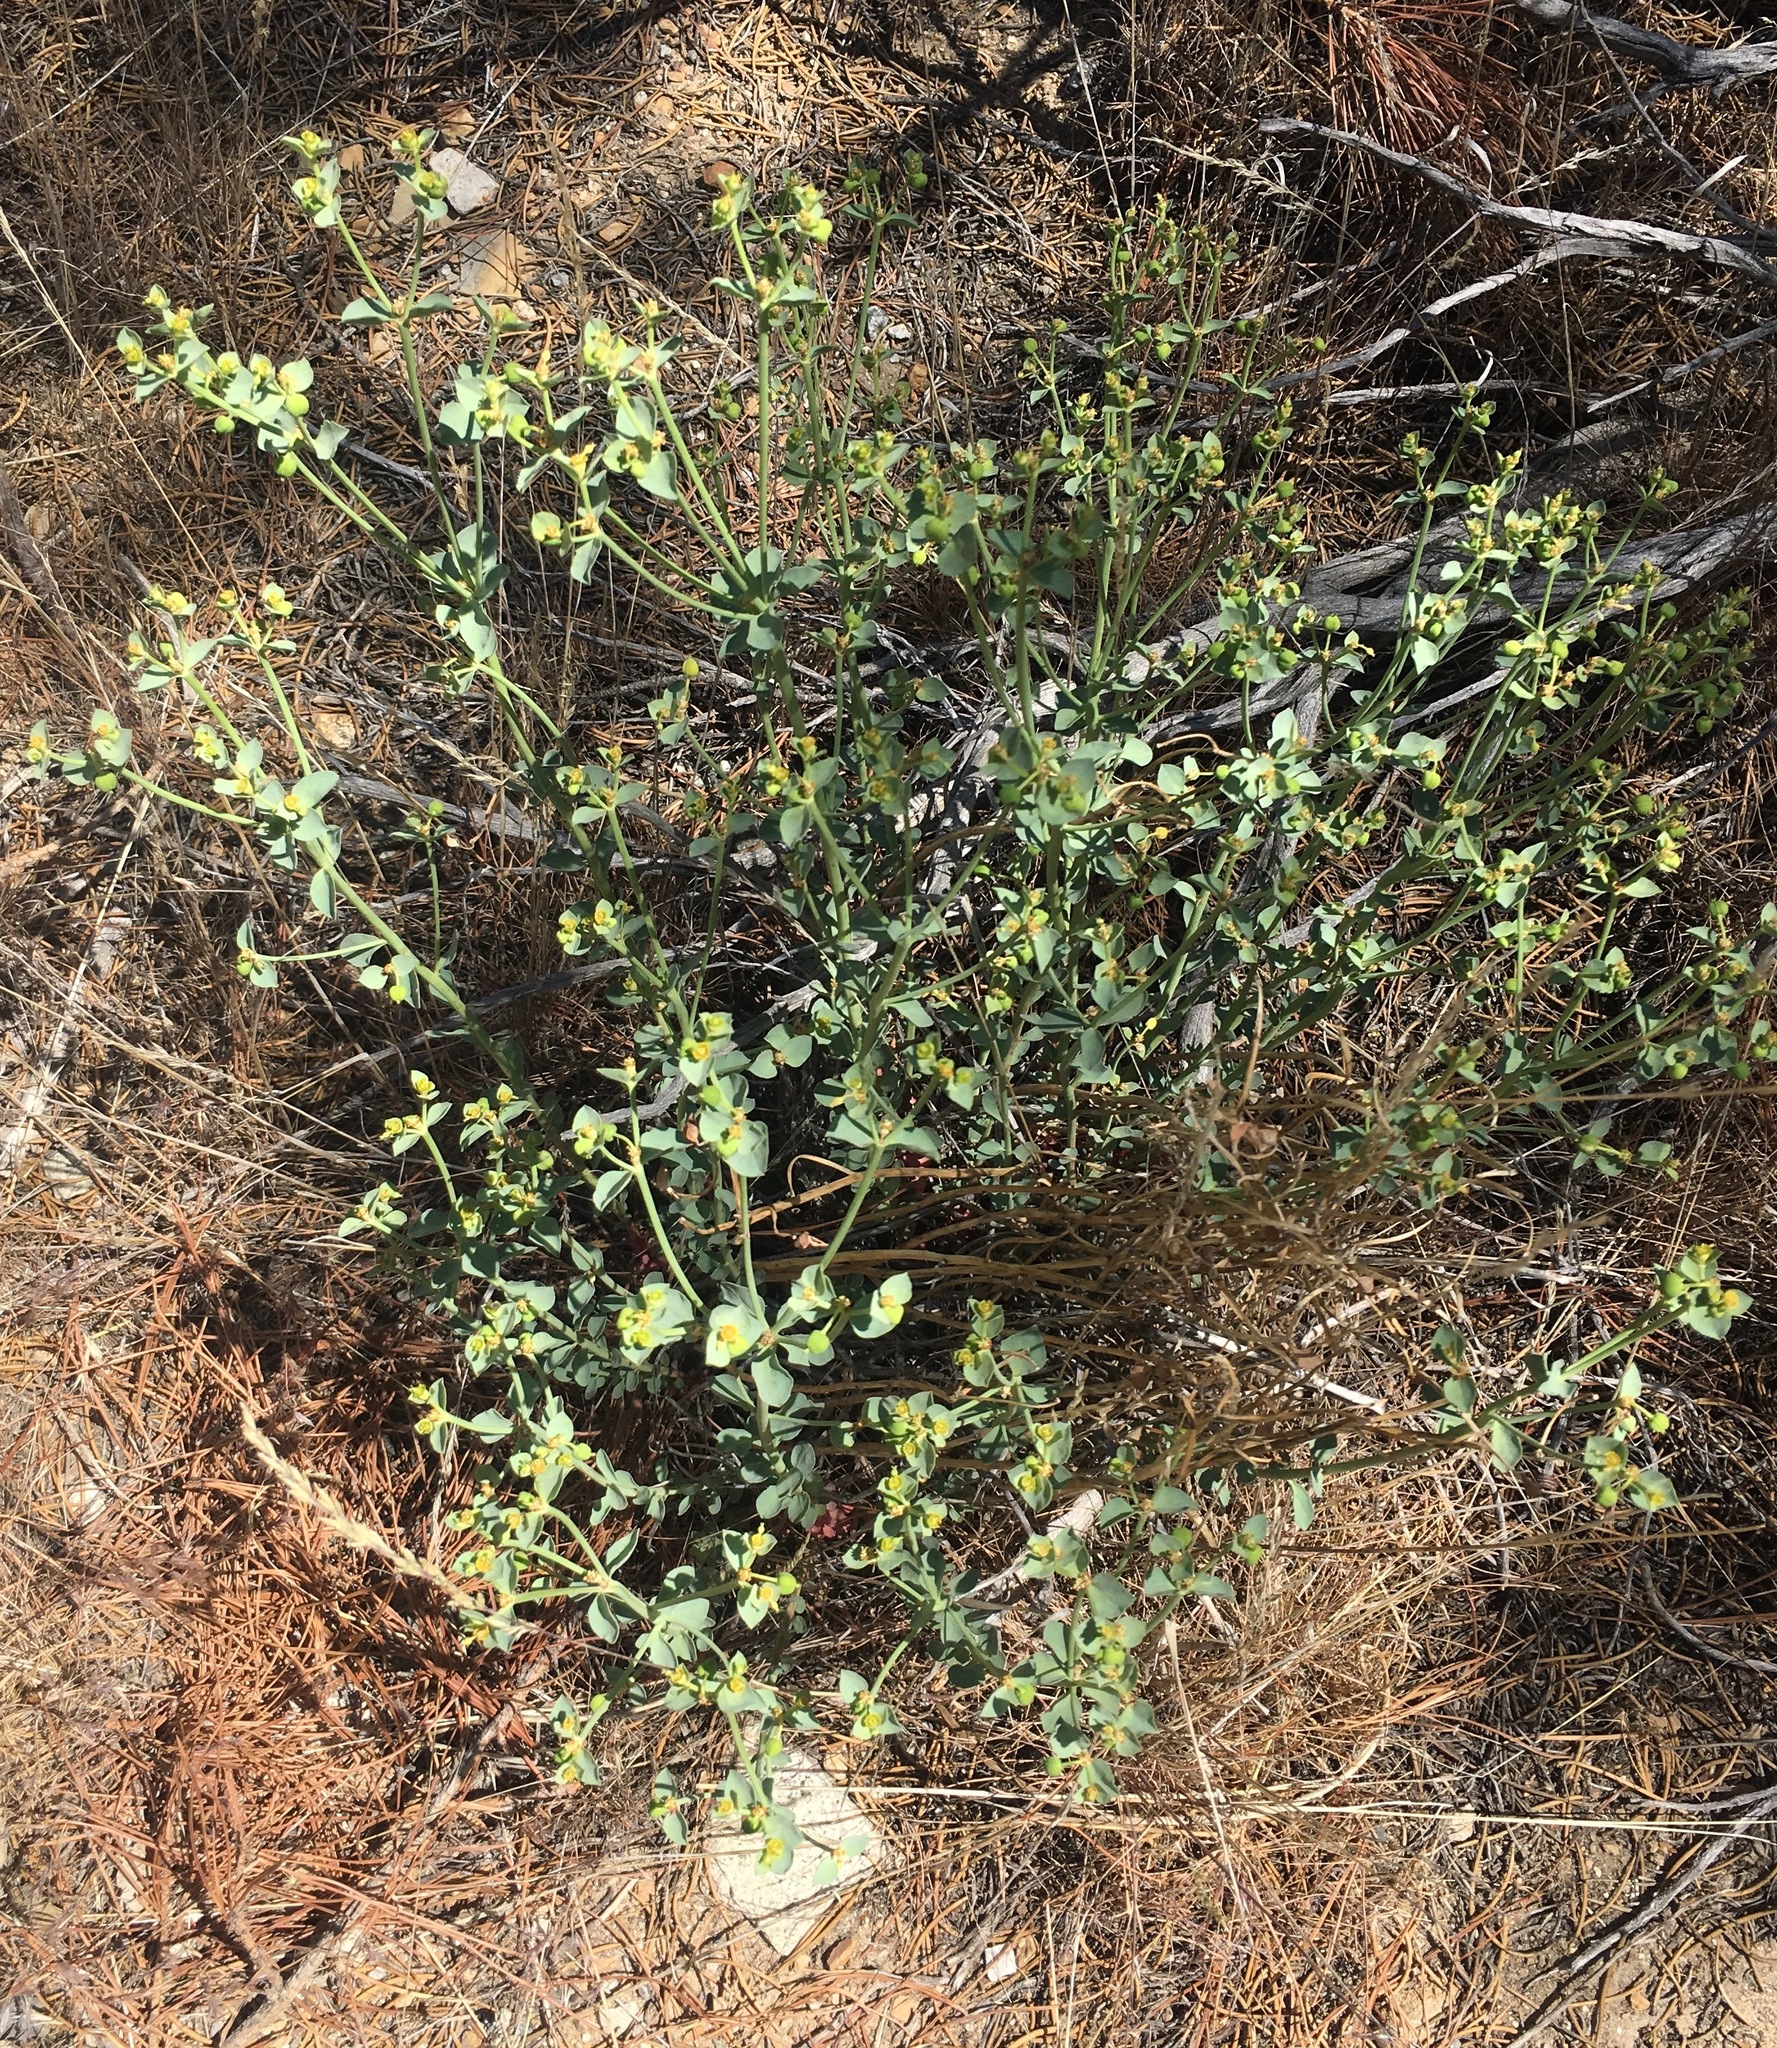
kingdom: Plantae
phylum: Tracheophyta
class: Magnoliopsida
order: Malpighiales
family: Euphorbiaceae
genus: Euphorbia
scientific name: Euphorbia lurida
